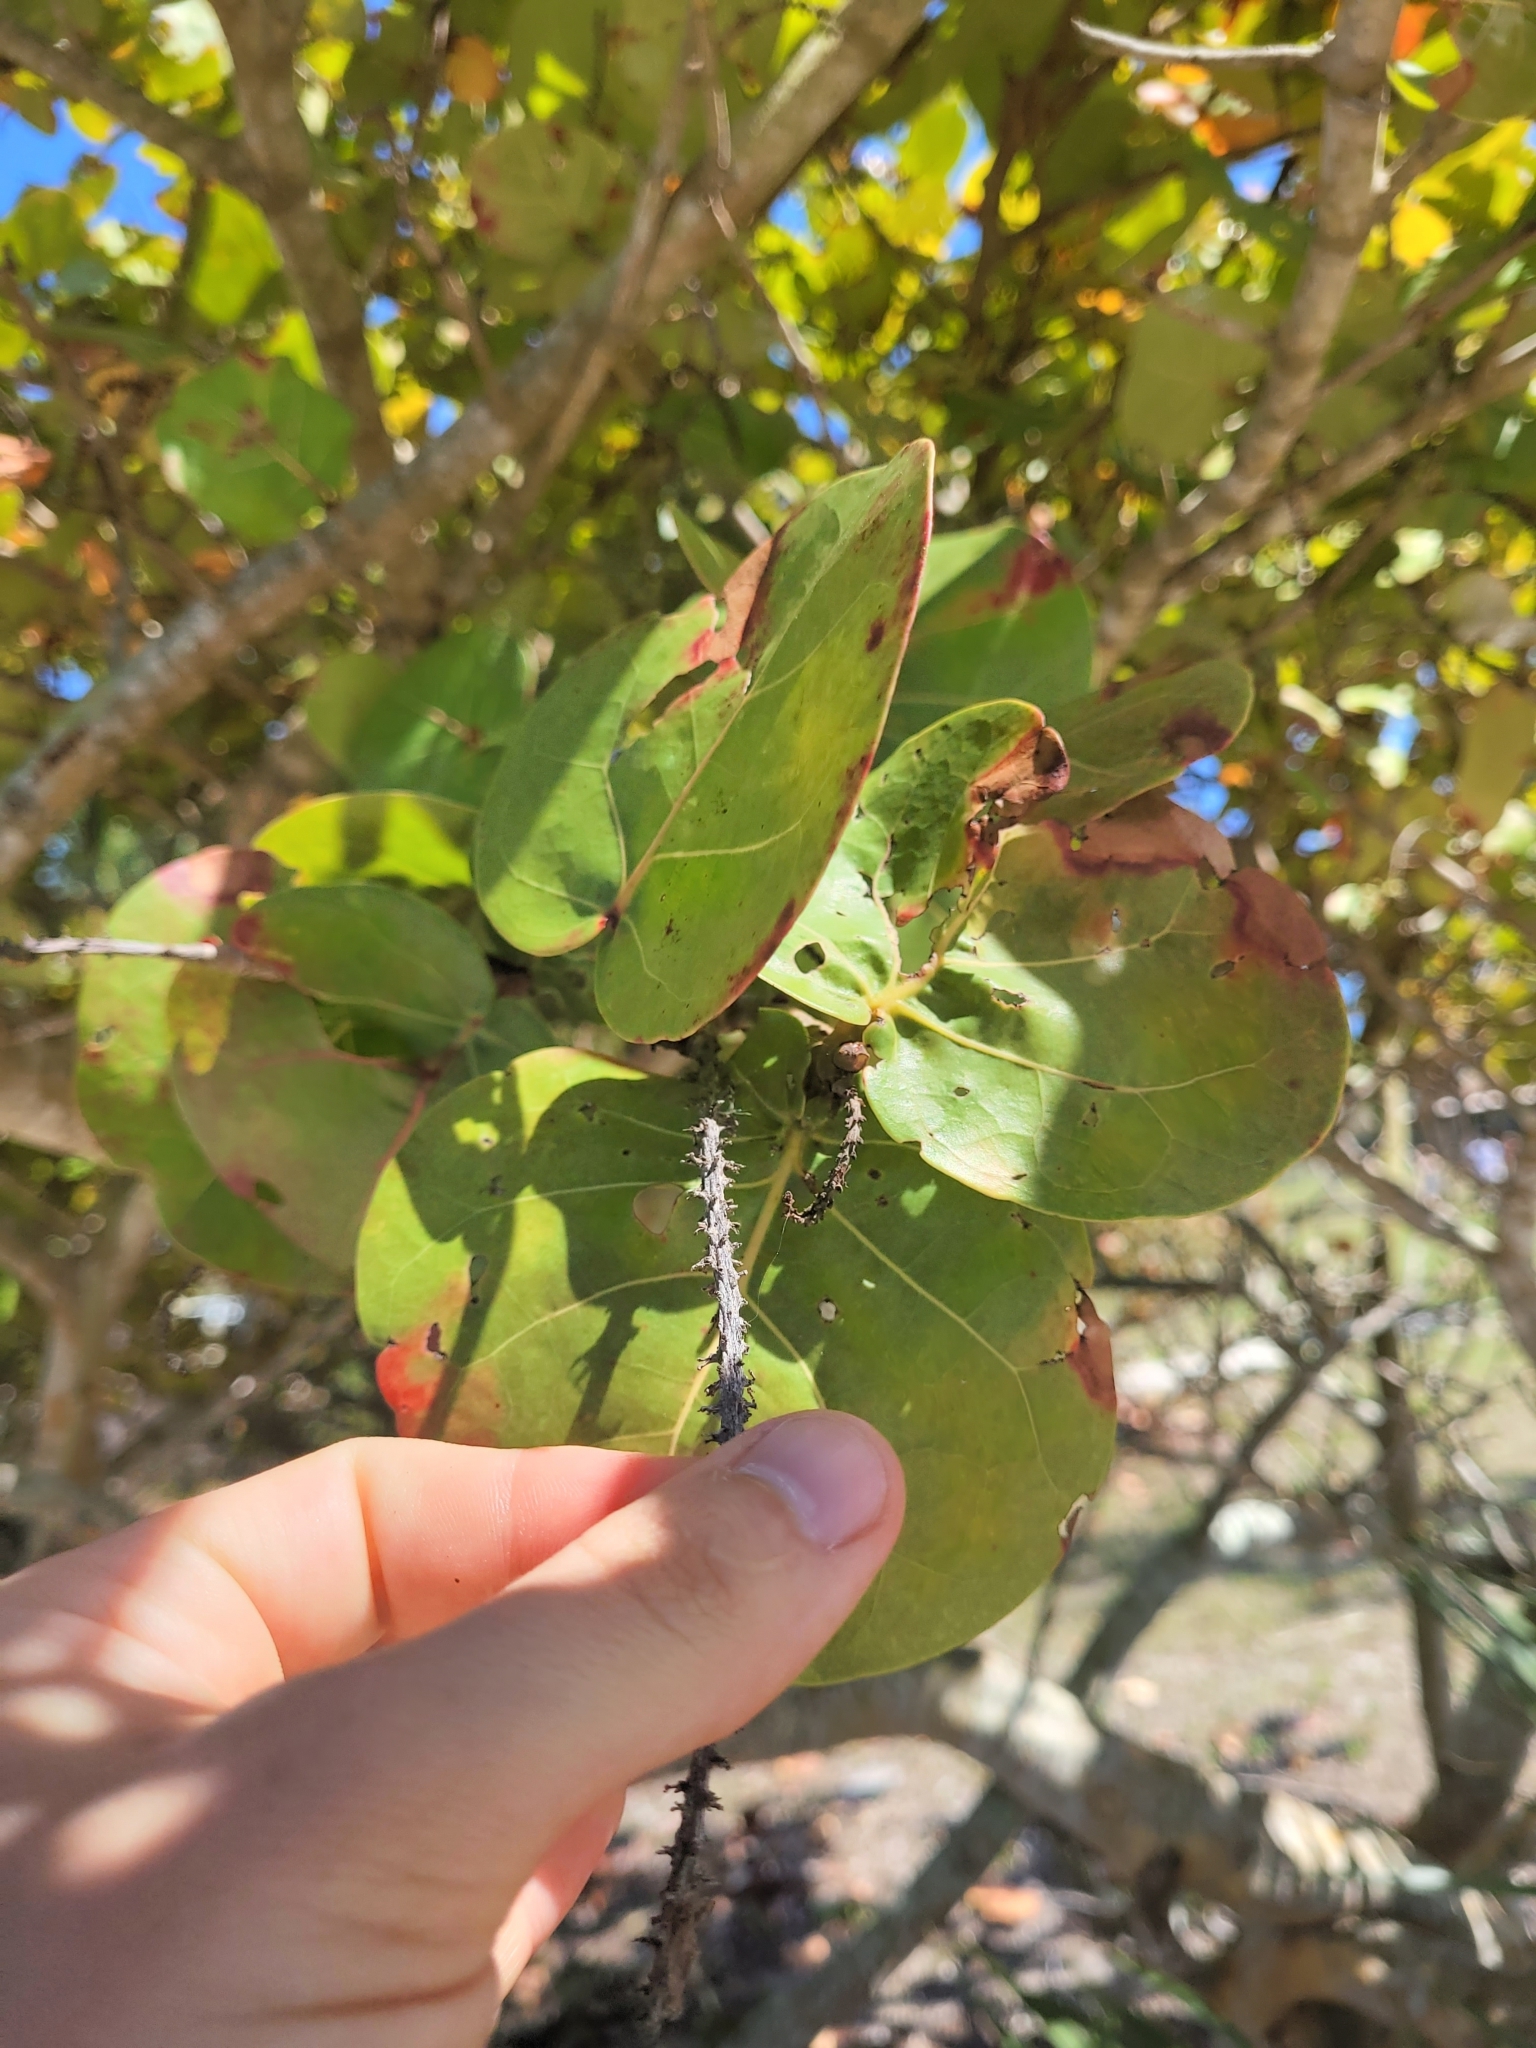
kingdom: Plantae
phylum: Tracheophyta
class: Magnoliopsida
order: Caryophyllales
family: Polygonaceae
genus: Coccoloba
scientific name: Coccoloba uvifera
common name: Seagrape
